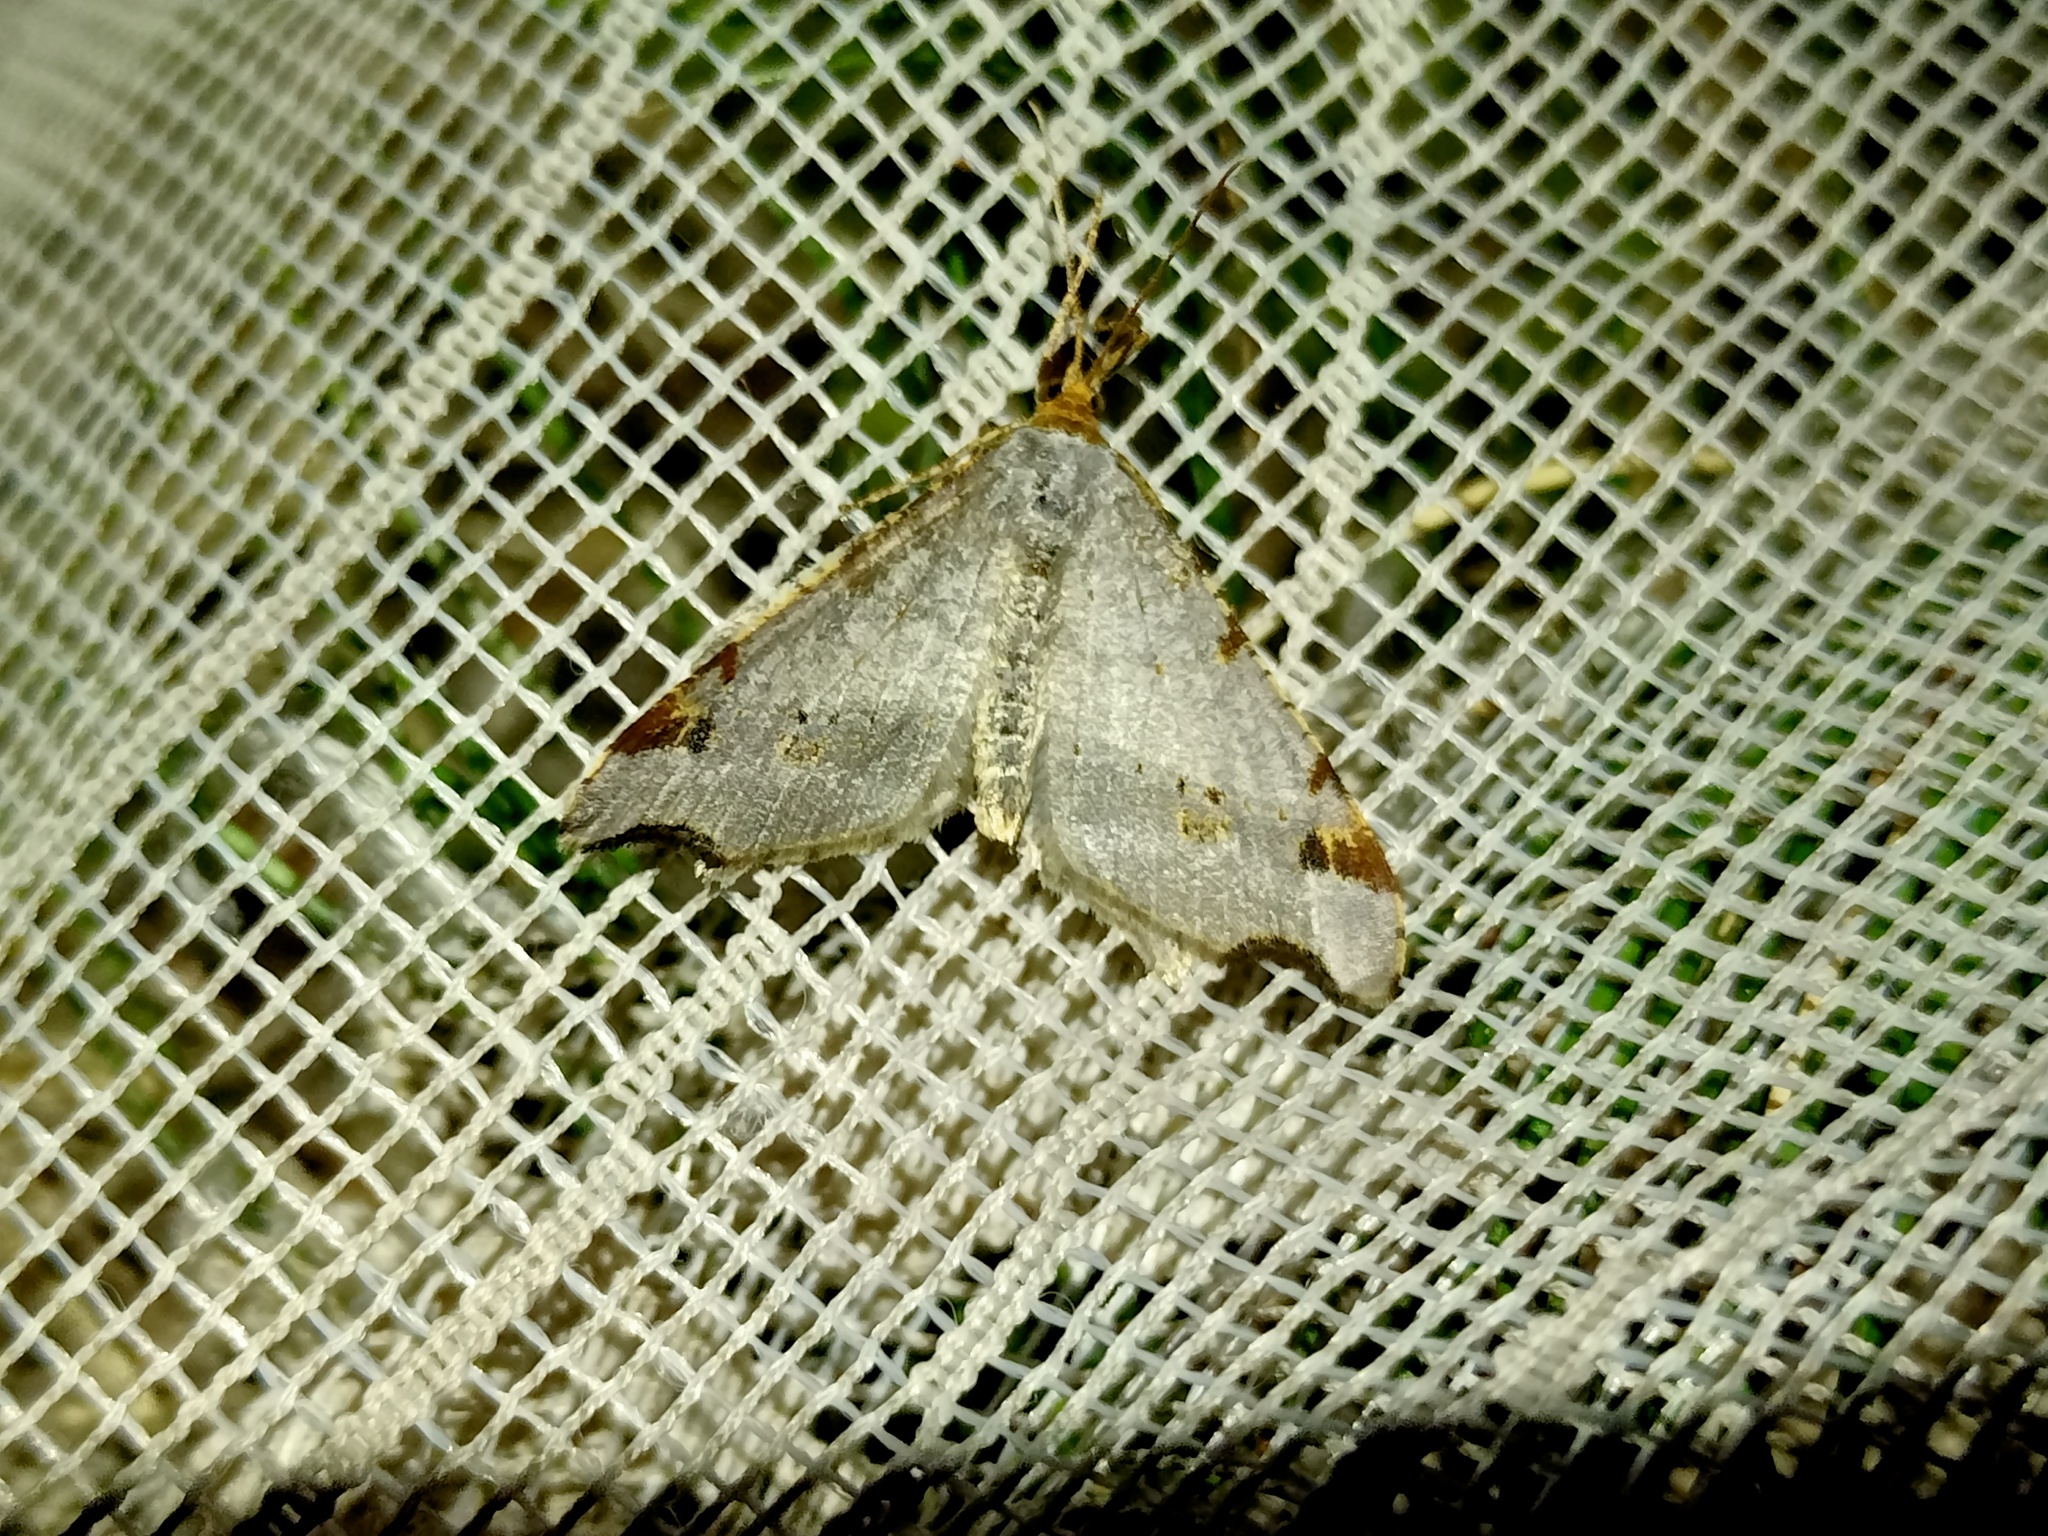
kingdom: Animalia
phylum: Arthropoda
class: Insecta
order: Lepidoptera
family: Geometridae
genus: Macaria
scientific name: Macaria alternata
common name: Sharp-angled peacock
